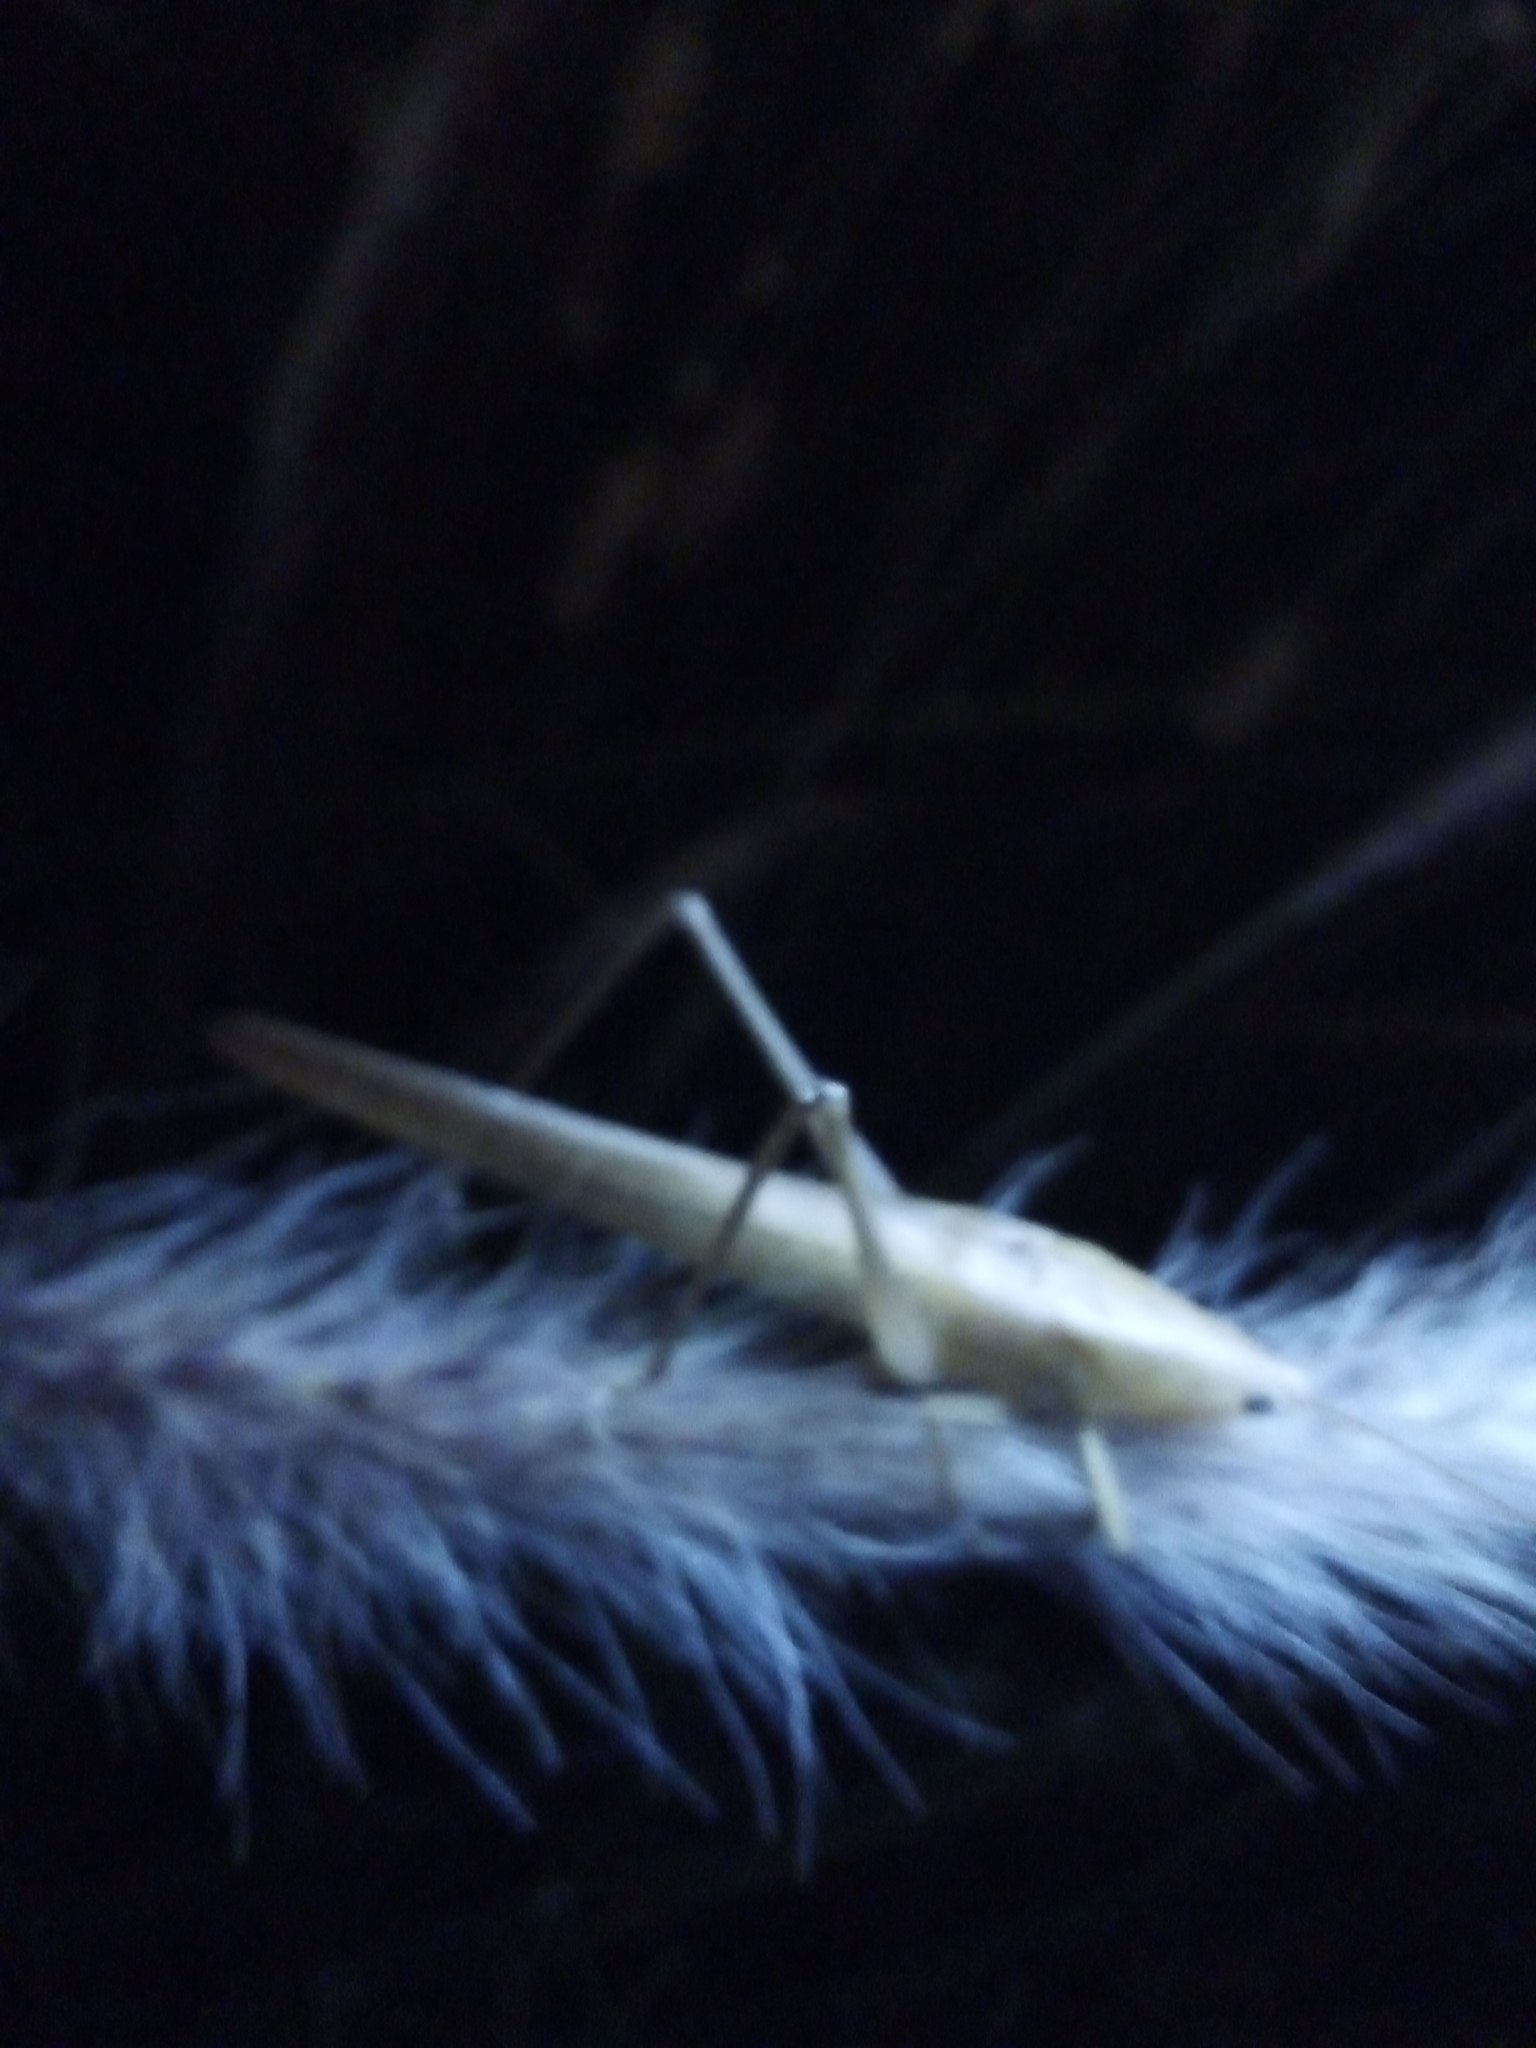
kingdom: Animalia
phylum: Arthropoda
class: Insecta
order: Orthoptera
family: Tettigoniidae
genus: Ruspolia
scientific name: Ruspolia nitidula
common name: Large conehead
